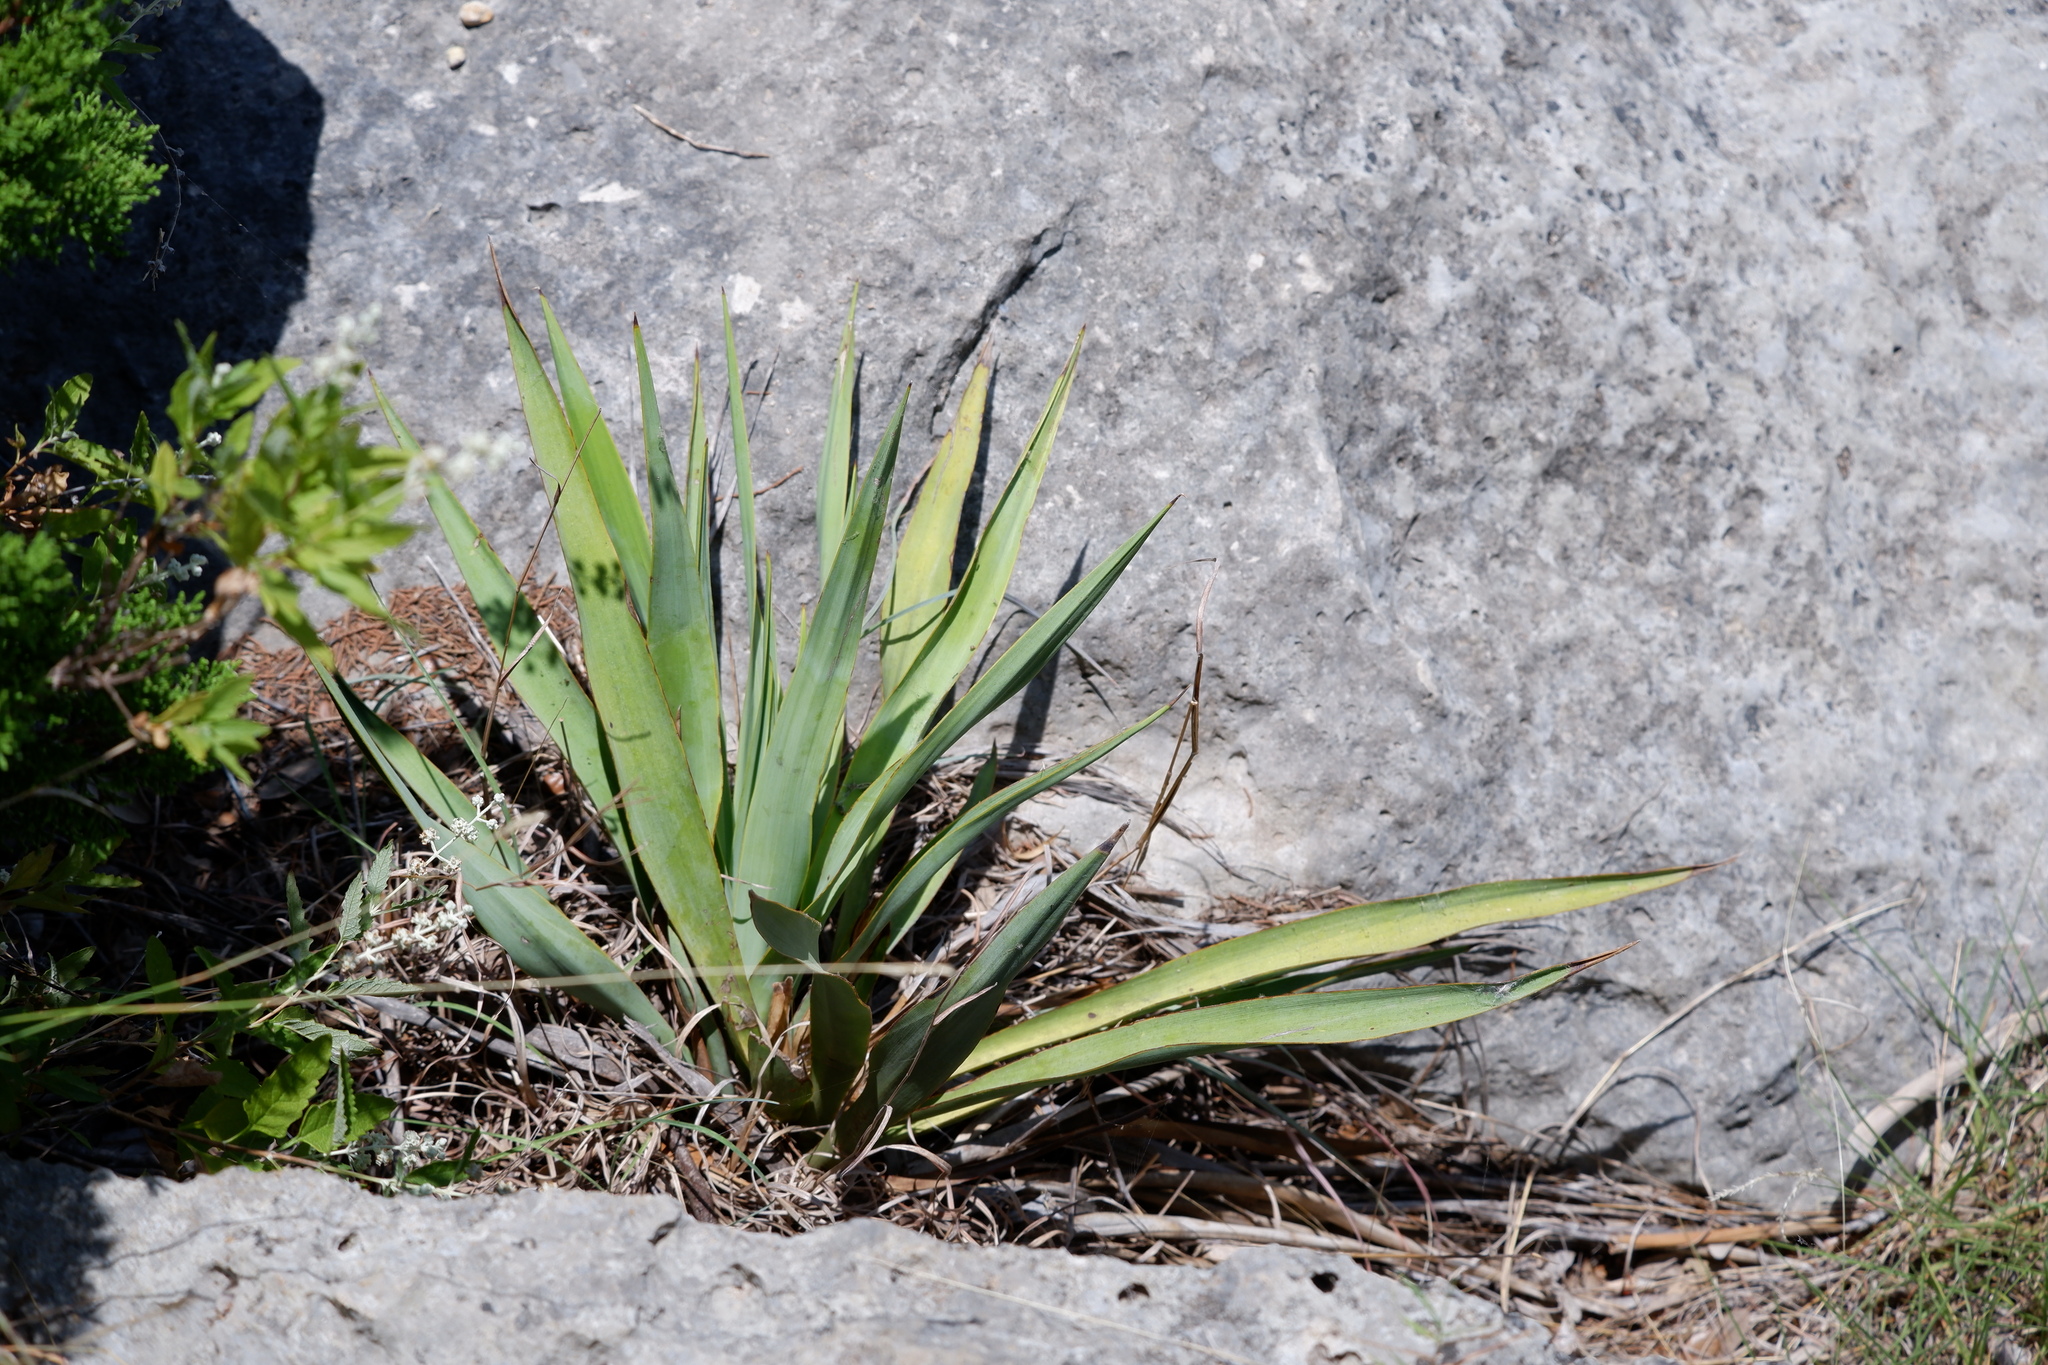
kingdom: Plantae
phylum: Tracheophyta
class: Liliopsida
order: Asparagales
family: Asparagaceae
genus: Yucca
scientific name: Yucca rupicola
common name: Twisted-leaf spanish-dagger
